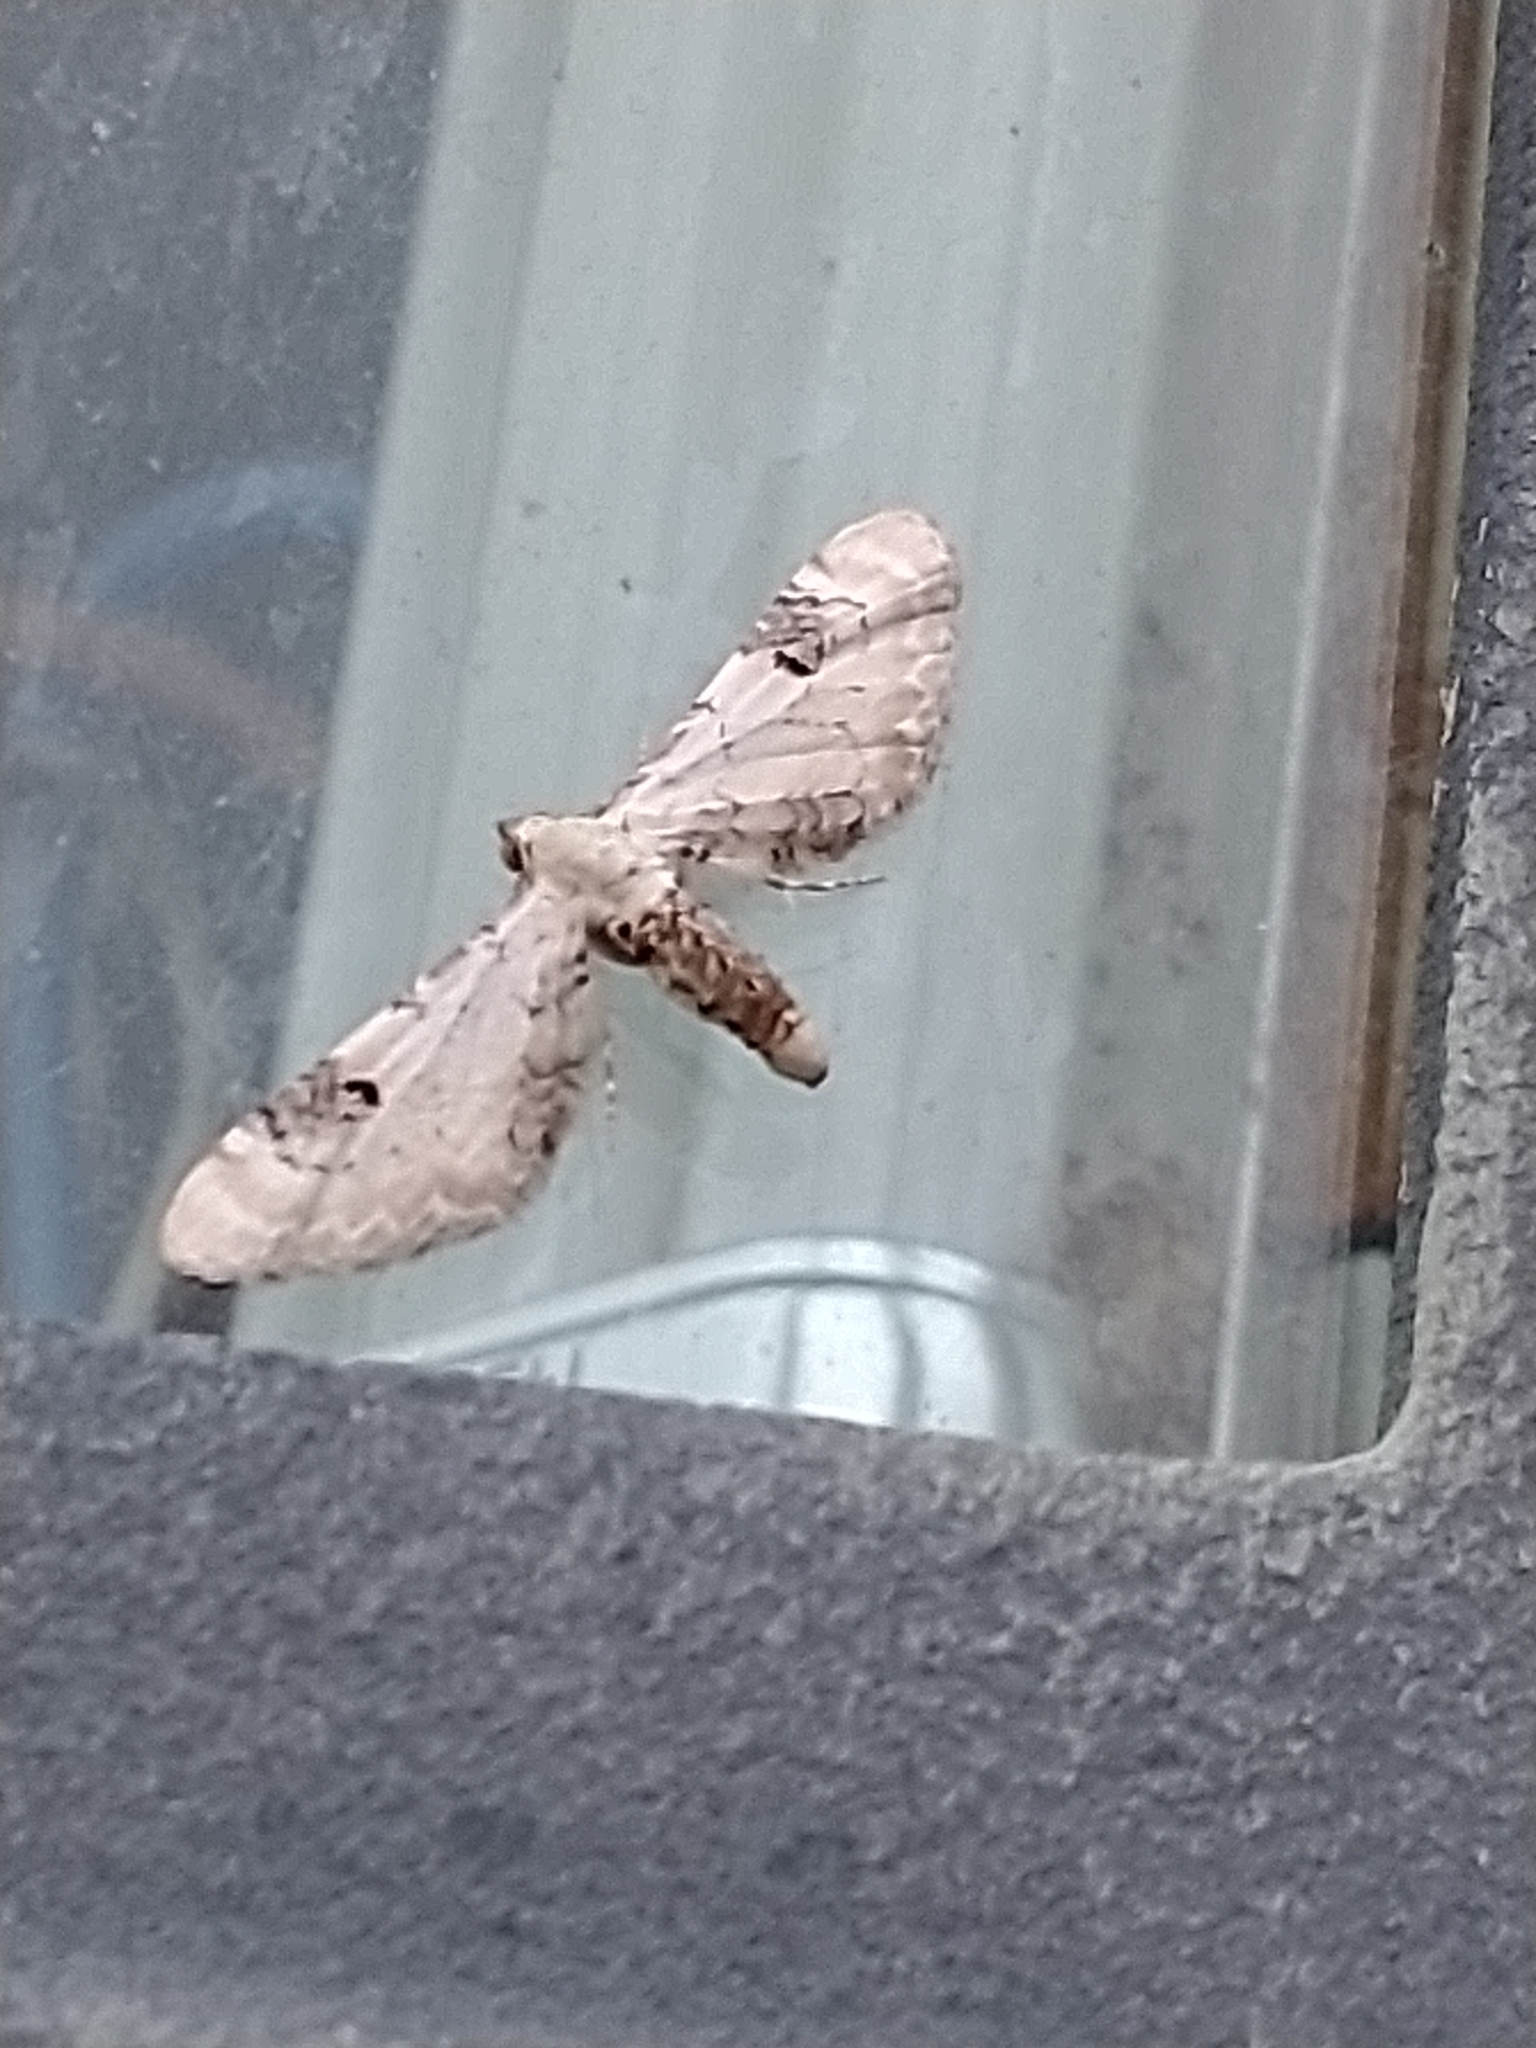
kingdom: Animalia
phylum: Arthropoda
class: Insecta
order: Lepidoptera
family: Geometridae
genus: Eupithecia
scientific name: Eupithecia centaureata
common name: Lime-speck pug
